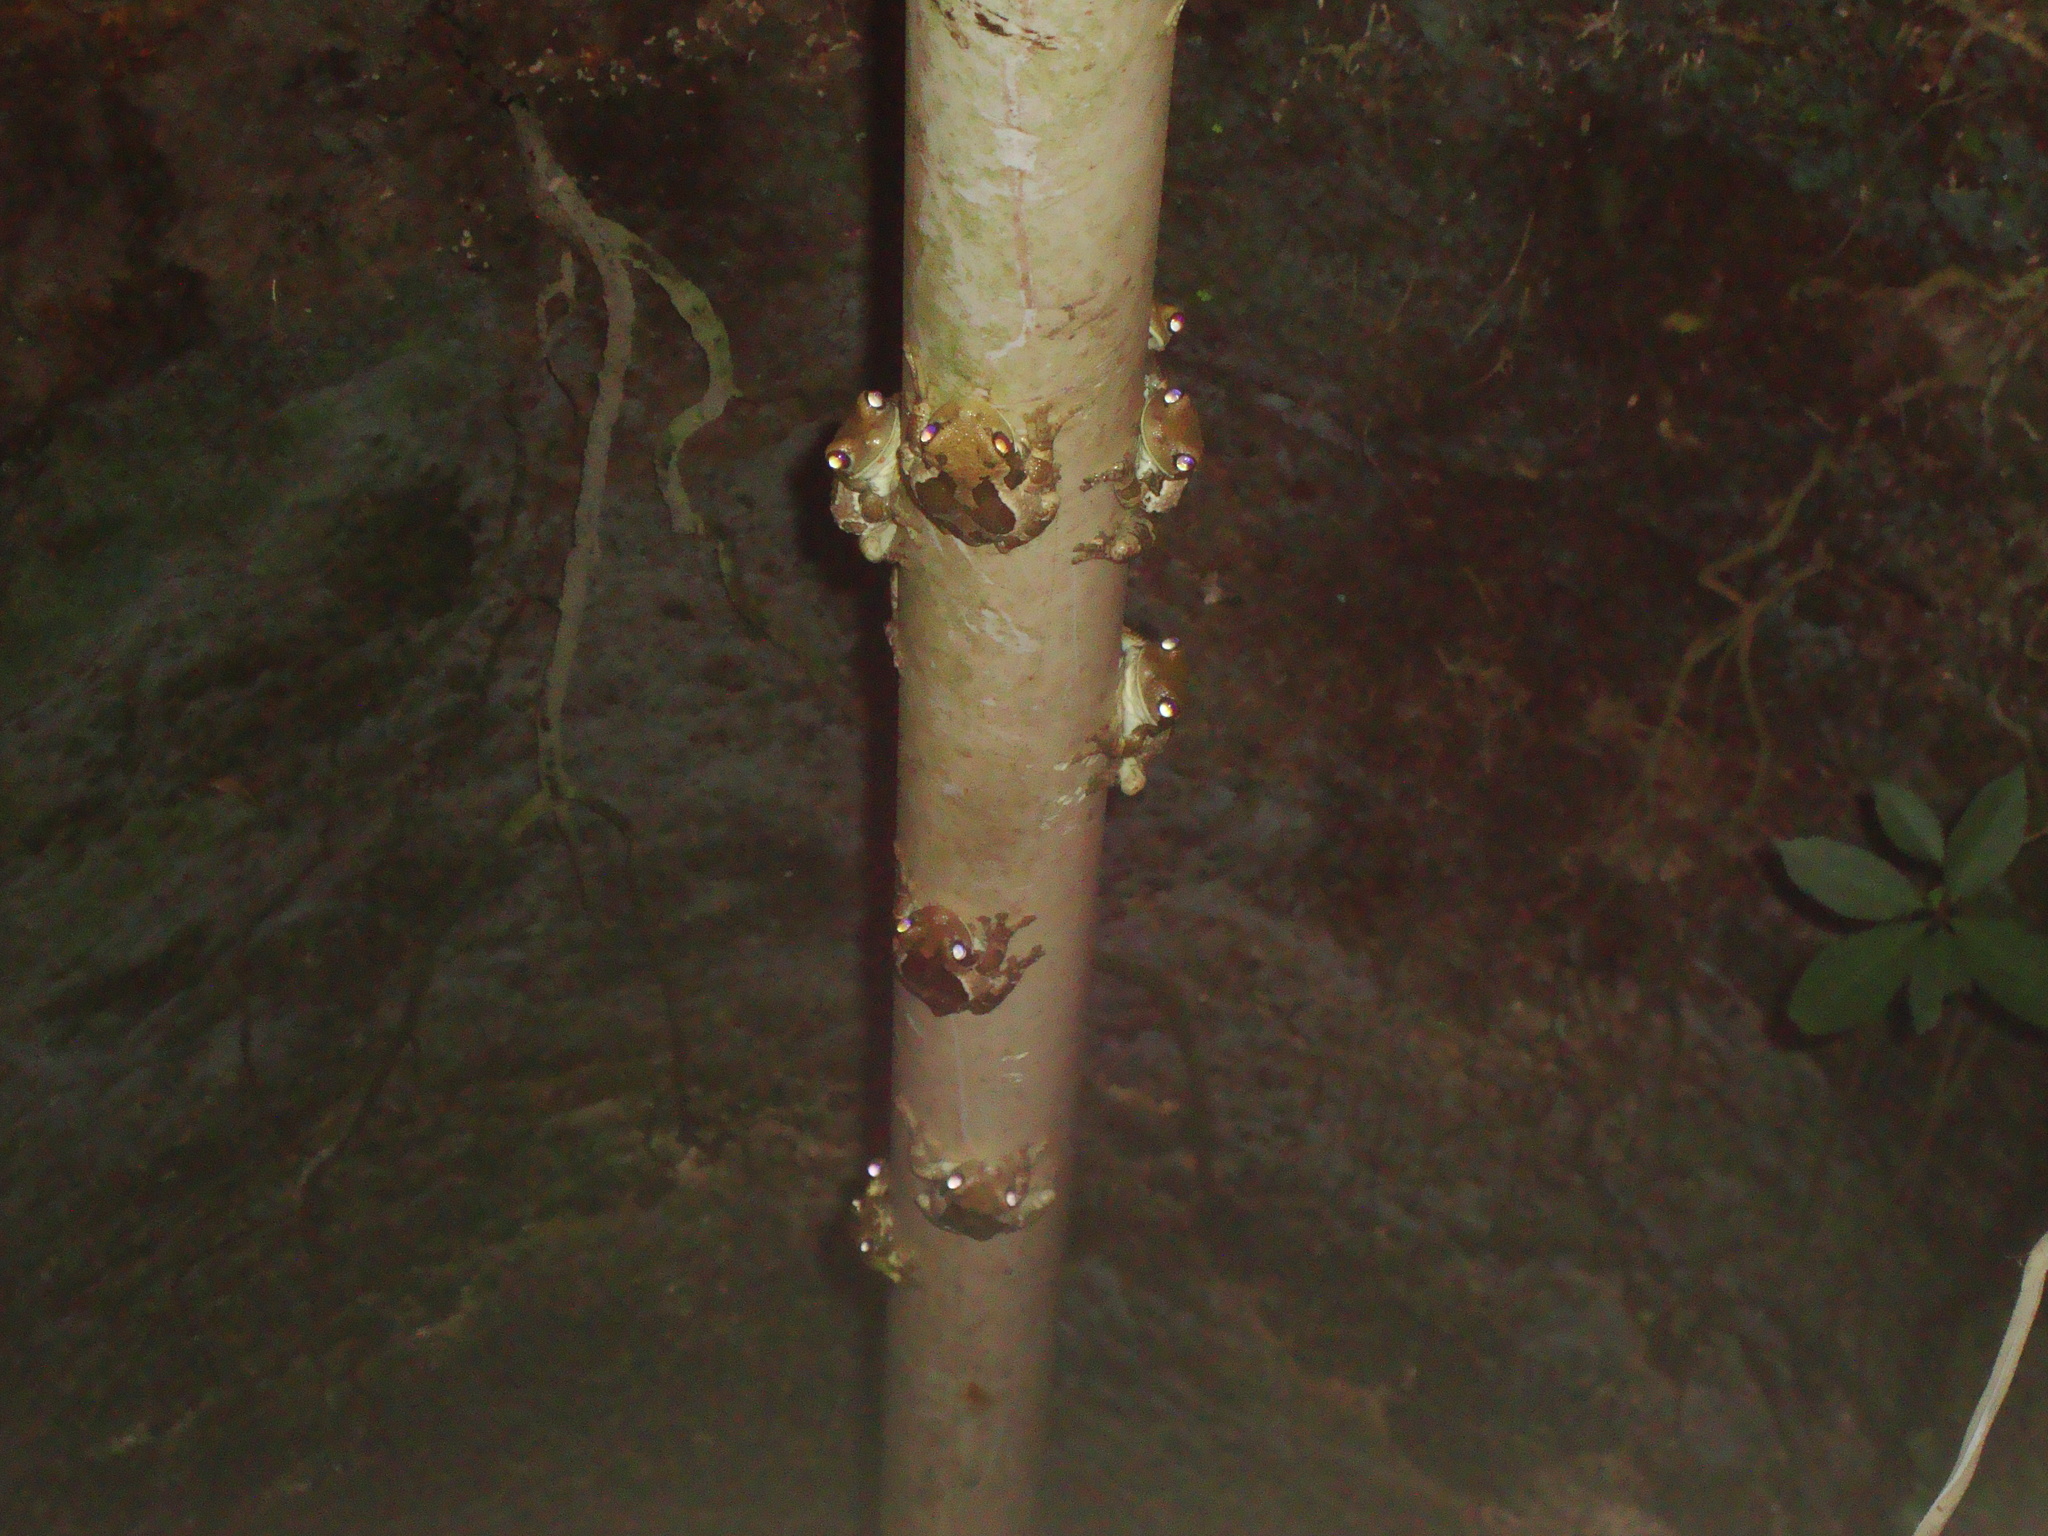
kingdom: Animalia
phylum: Chordata
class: Amphibia
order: Anura
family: Hylidae
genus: Trachycephalus
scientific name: Trachycephalus vermiculatus
